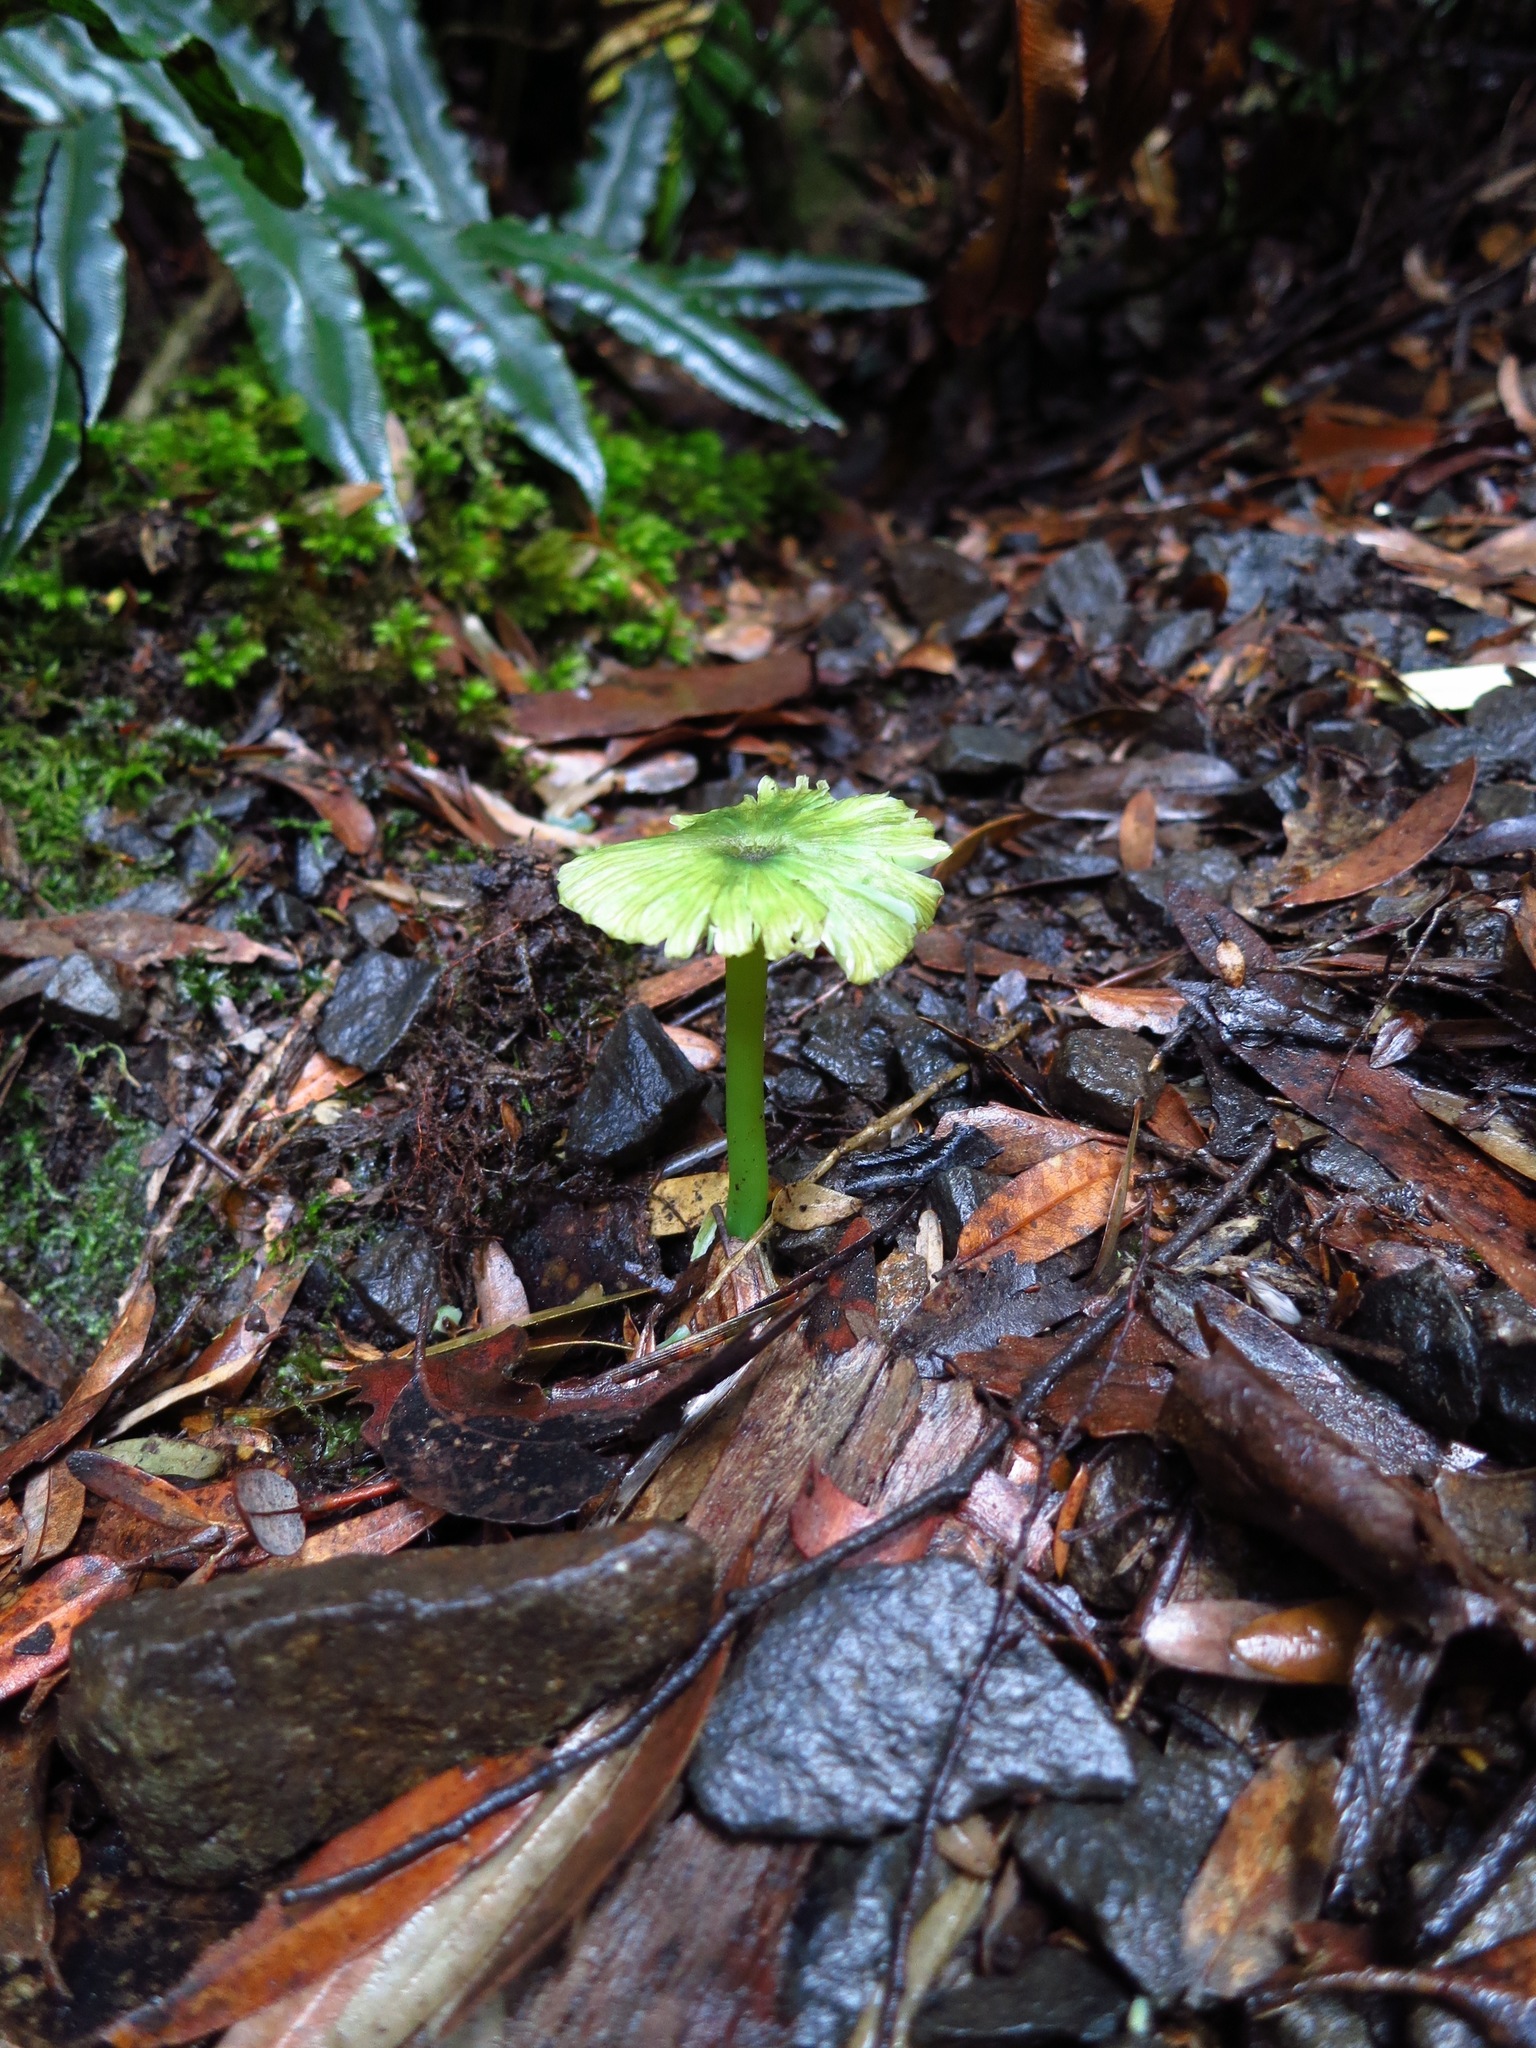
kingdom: Fungi
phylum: Basidiomycota
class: Agaricomycetes
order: Agaricales
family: Entolomataceae
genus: Entoloma
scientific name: Entoloma rodwayi
